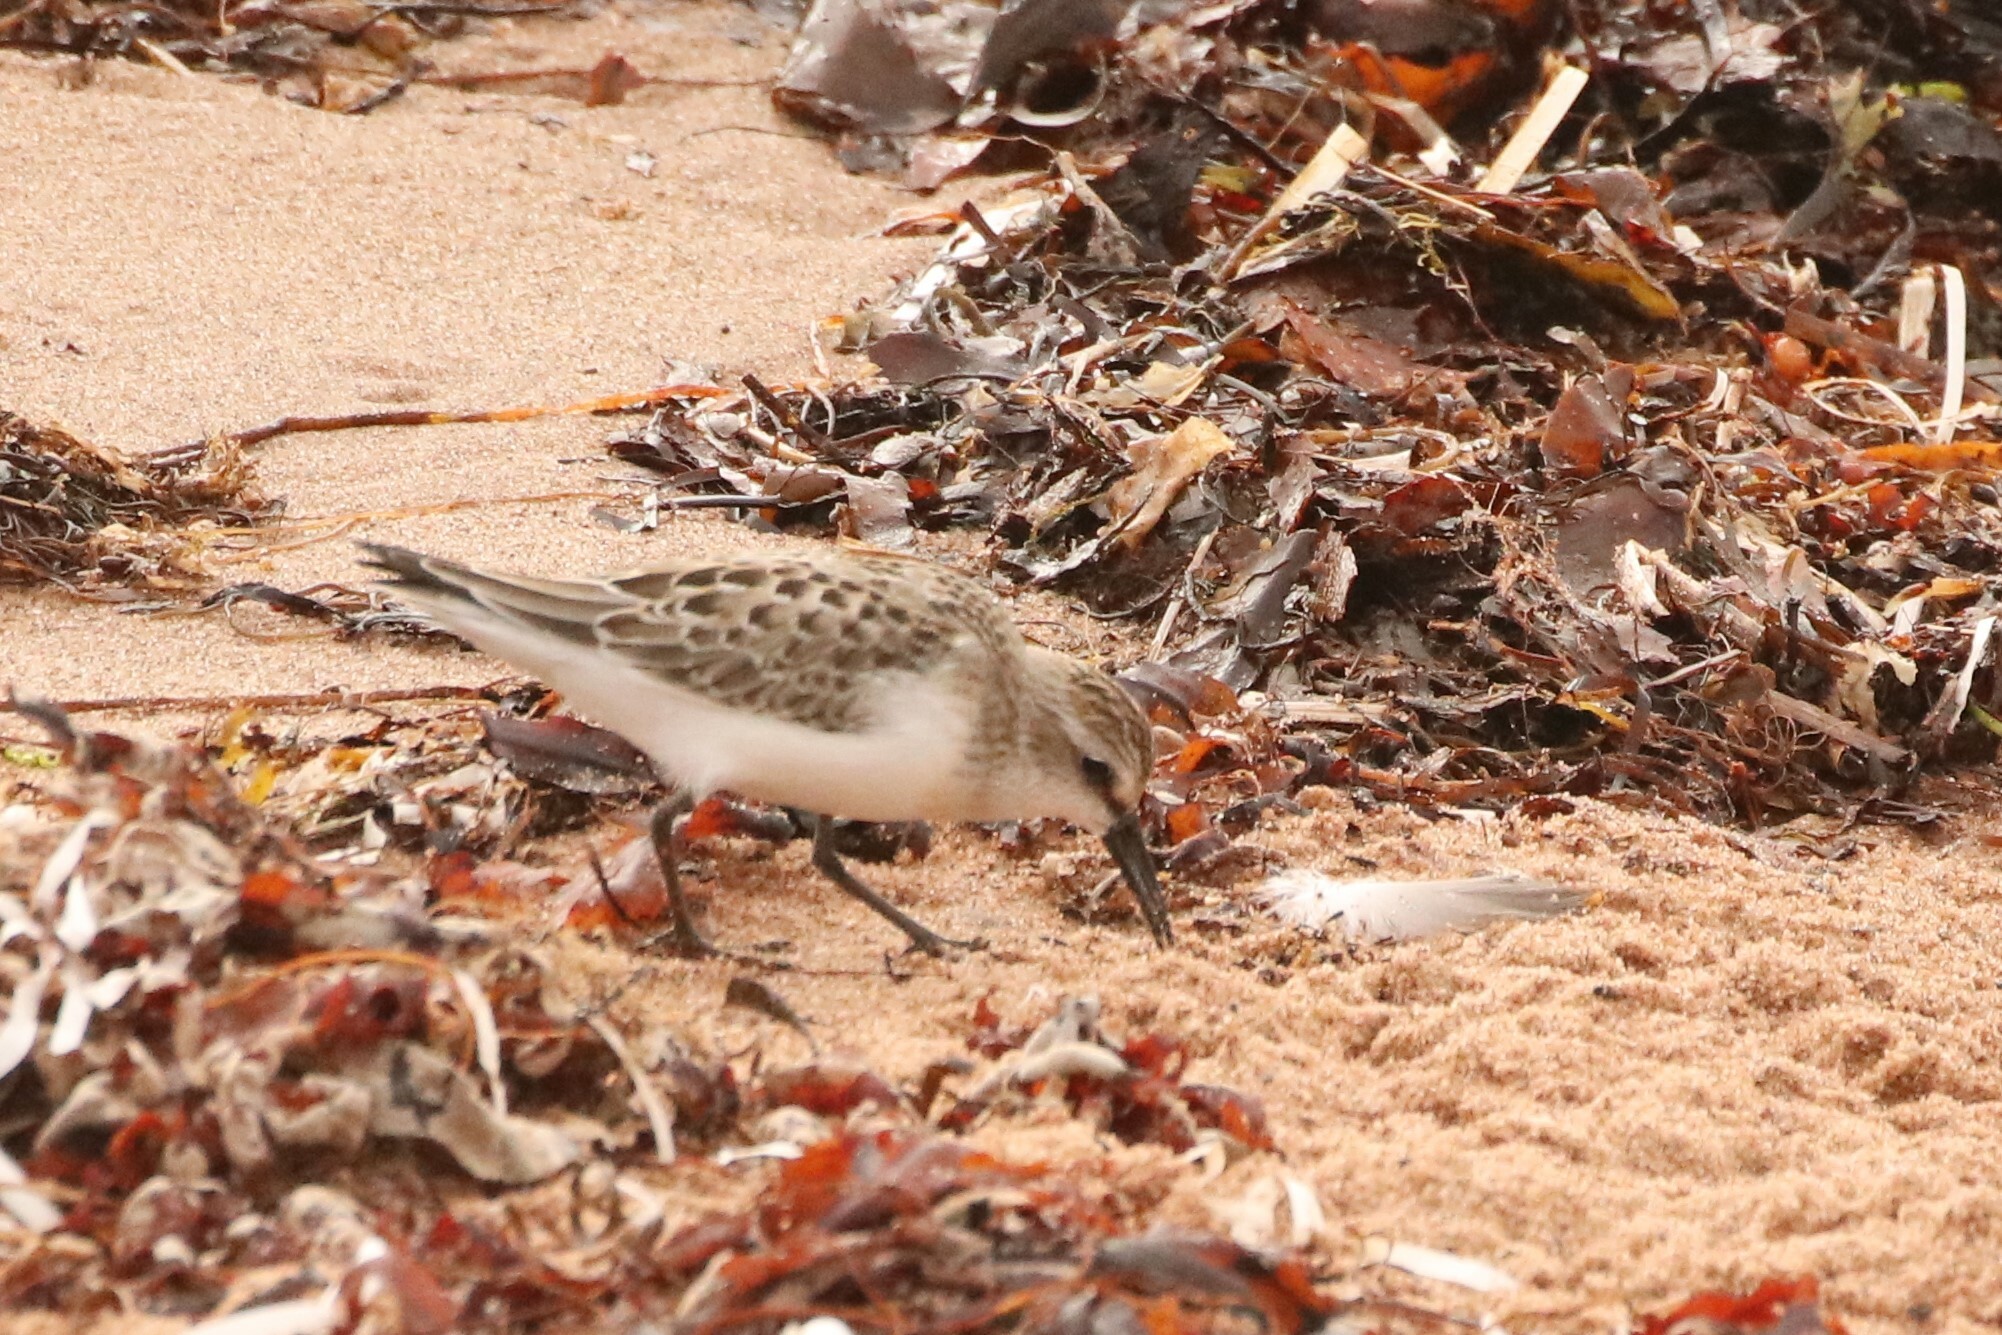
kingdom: Animalia
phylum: Chordata
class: Aves
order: Charadriiformes
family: Scolopacidae
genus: Calidris
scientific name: Calidris pusilla
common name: Semipalmated sandpiper
